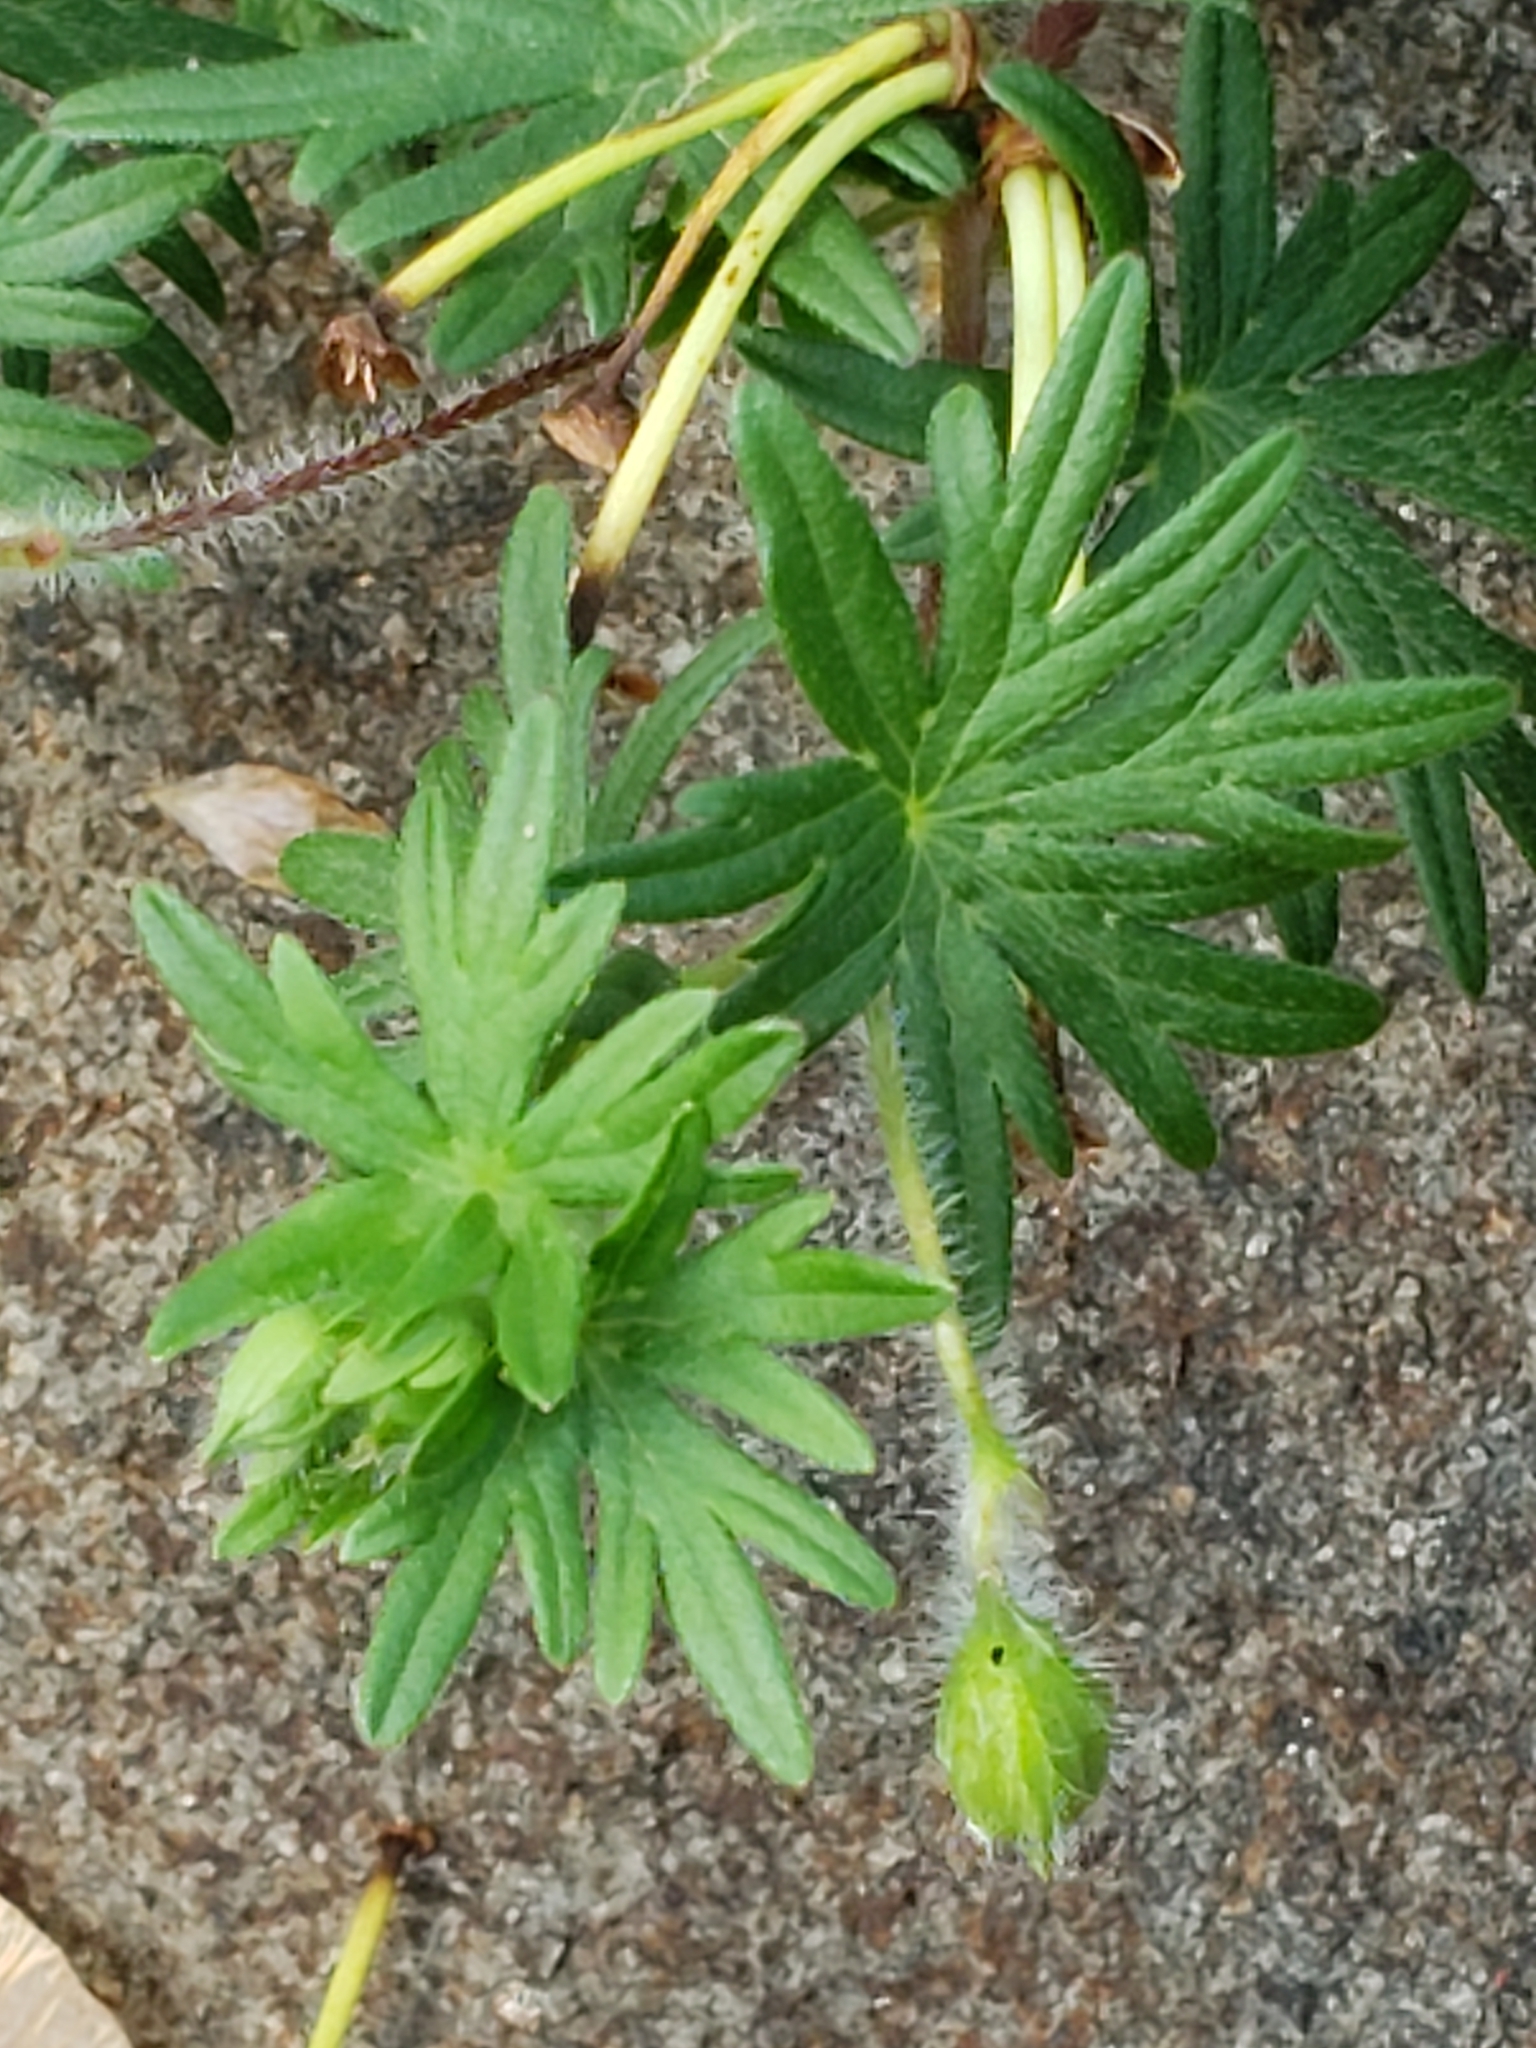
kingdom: Plantae
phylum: Tracheophyta
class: Magnoliopsida
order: Geraniales
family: Geraniaceae
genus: Geranium
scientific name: Geranium sanguineum
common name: Bloody crane's-bill
